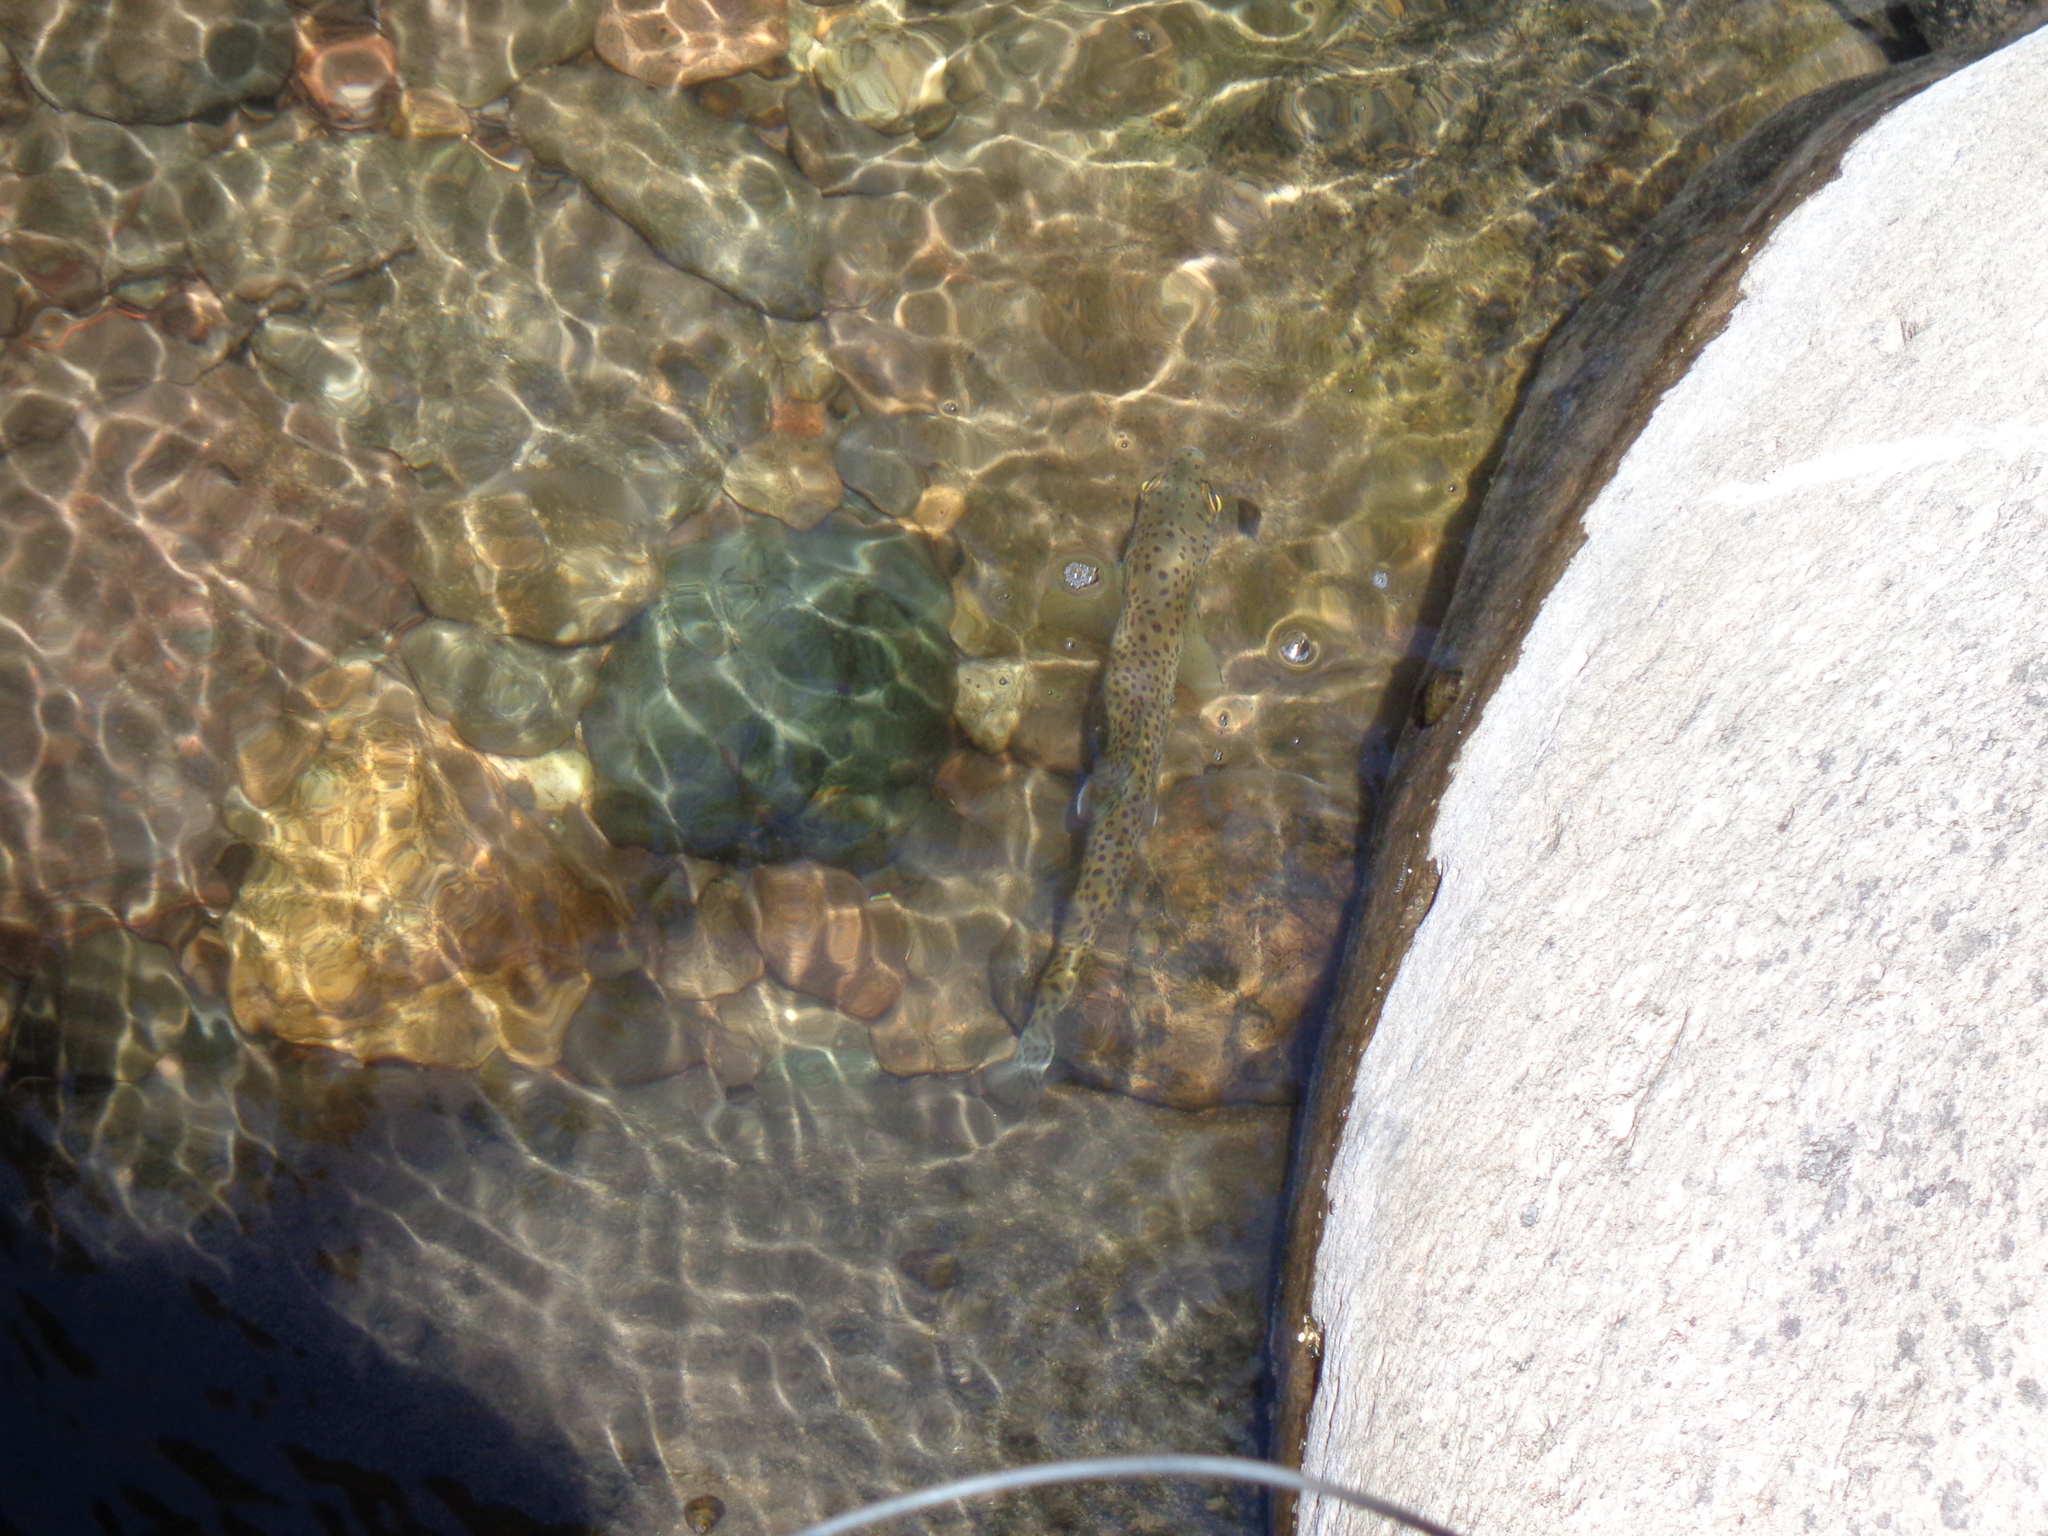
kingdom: Animalia
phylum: Chordata
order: Salmoniformes
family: Salmonidae
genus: Salmo
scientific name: Salmo trutta
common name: Brown trout
